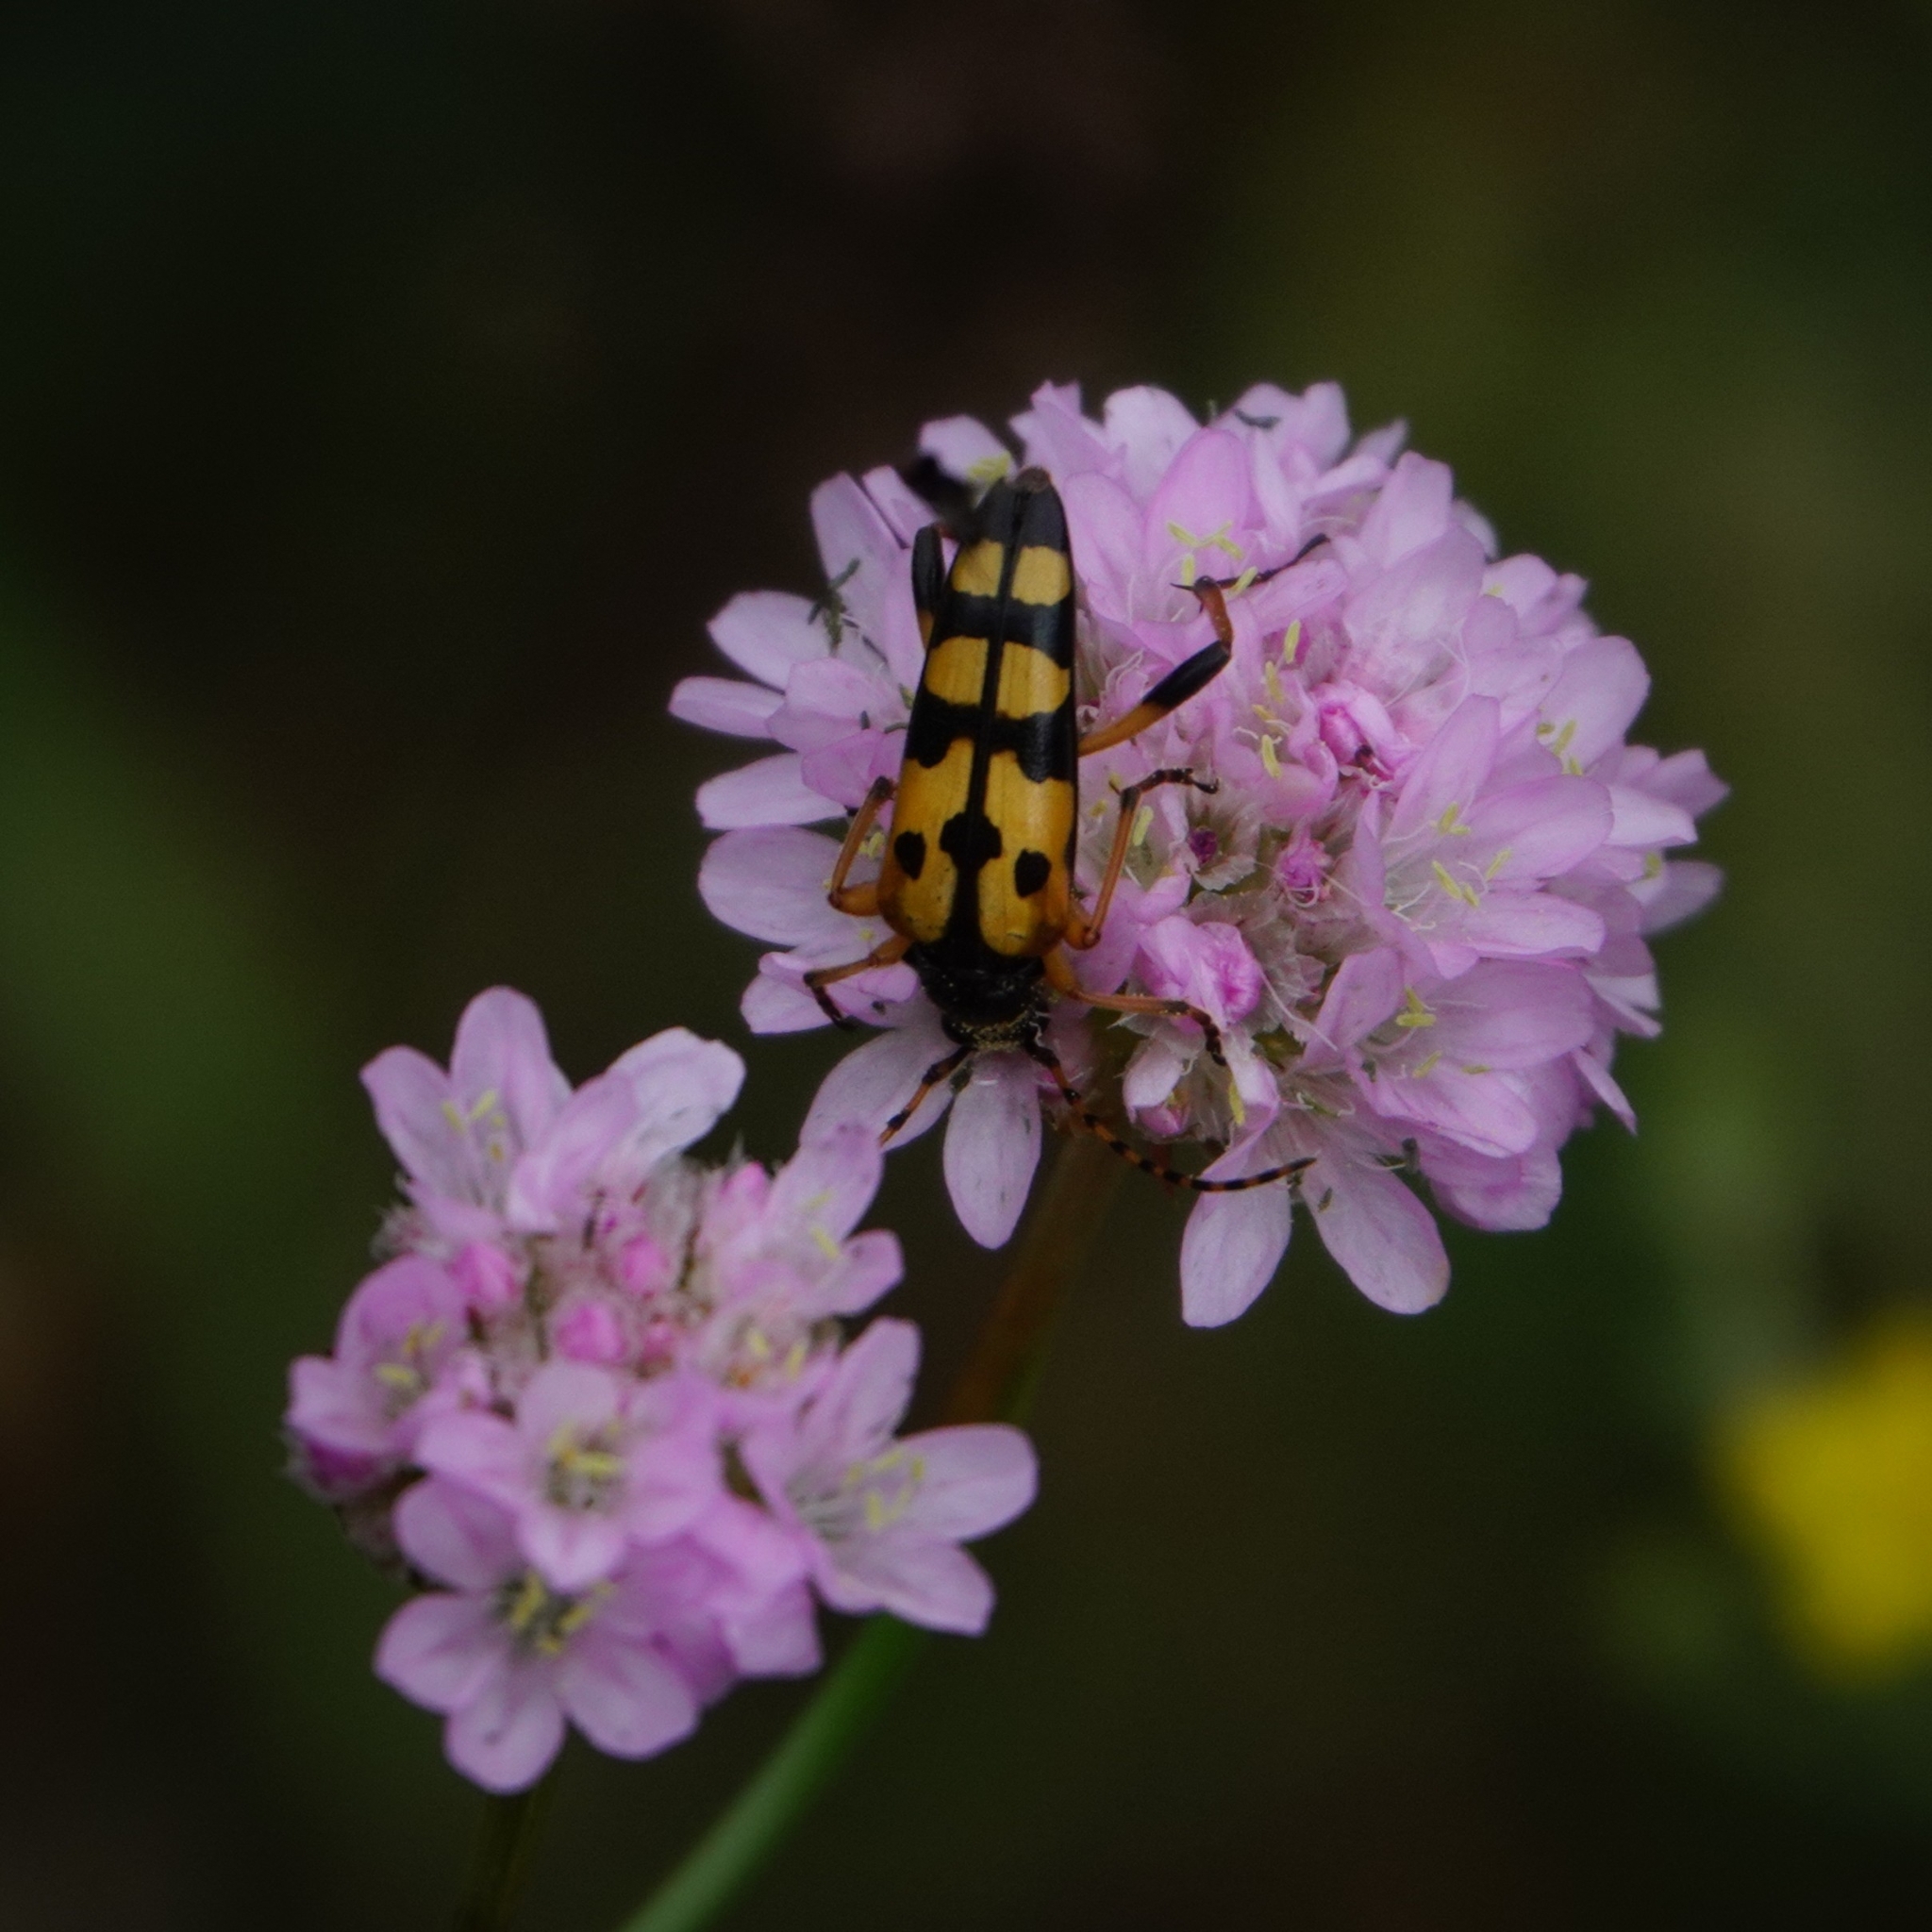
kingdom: Animalia
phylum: Arthropoda
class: Insecta
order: Coleoptera
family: Cerambycidae
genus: Rutpela
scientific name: Rutpela maculata
